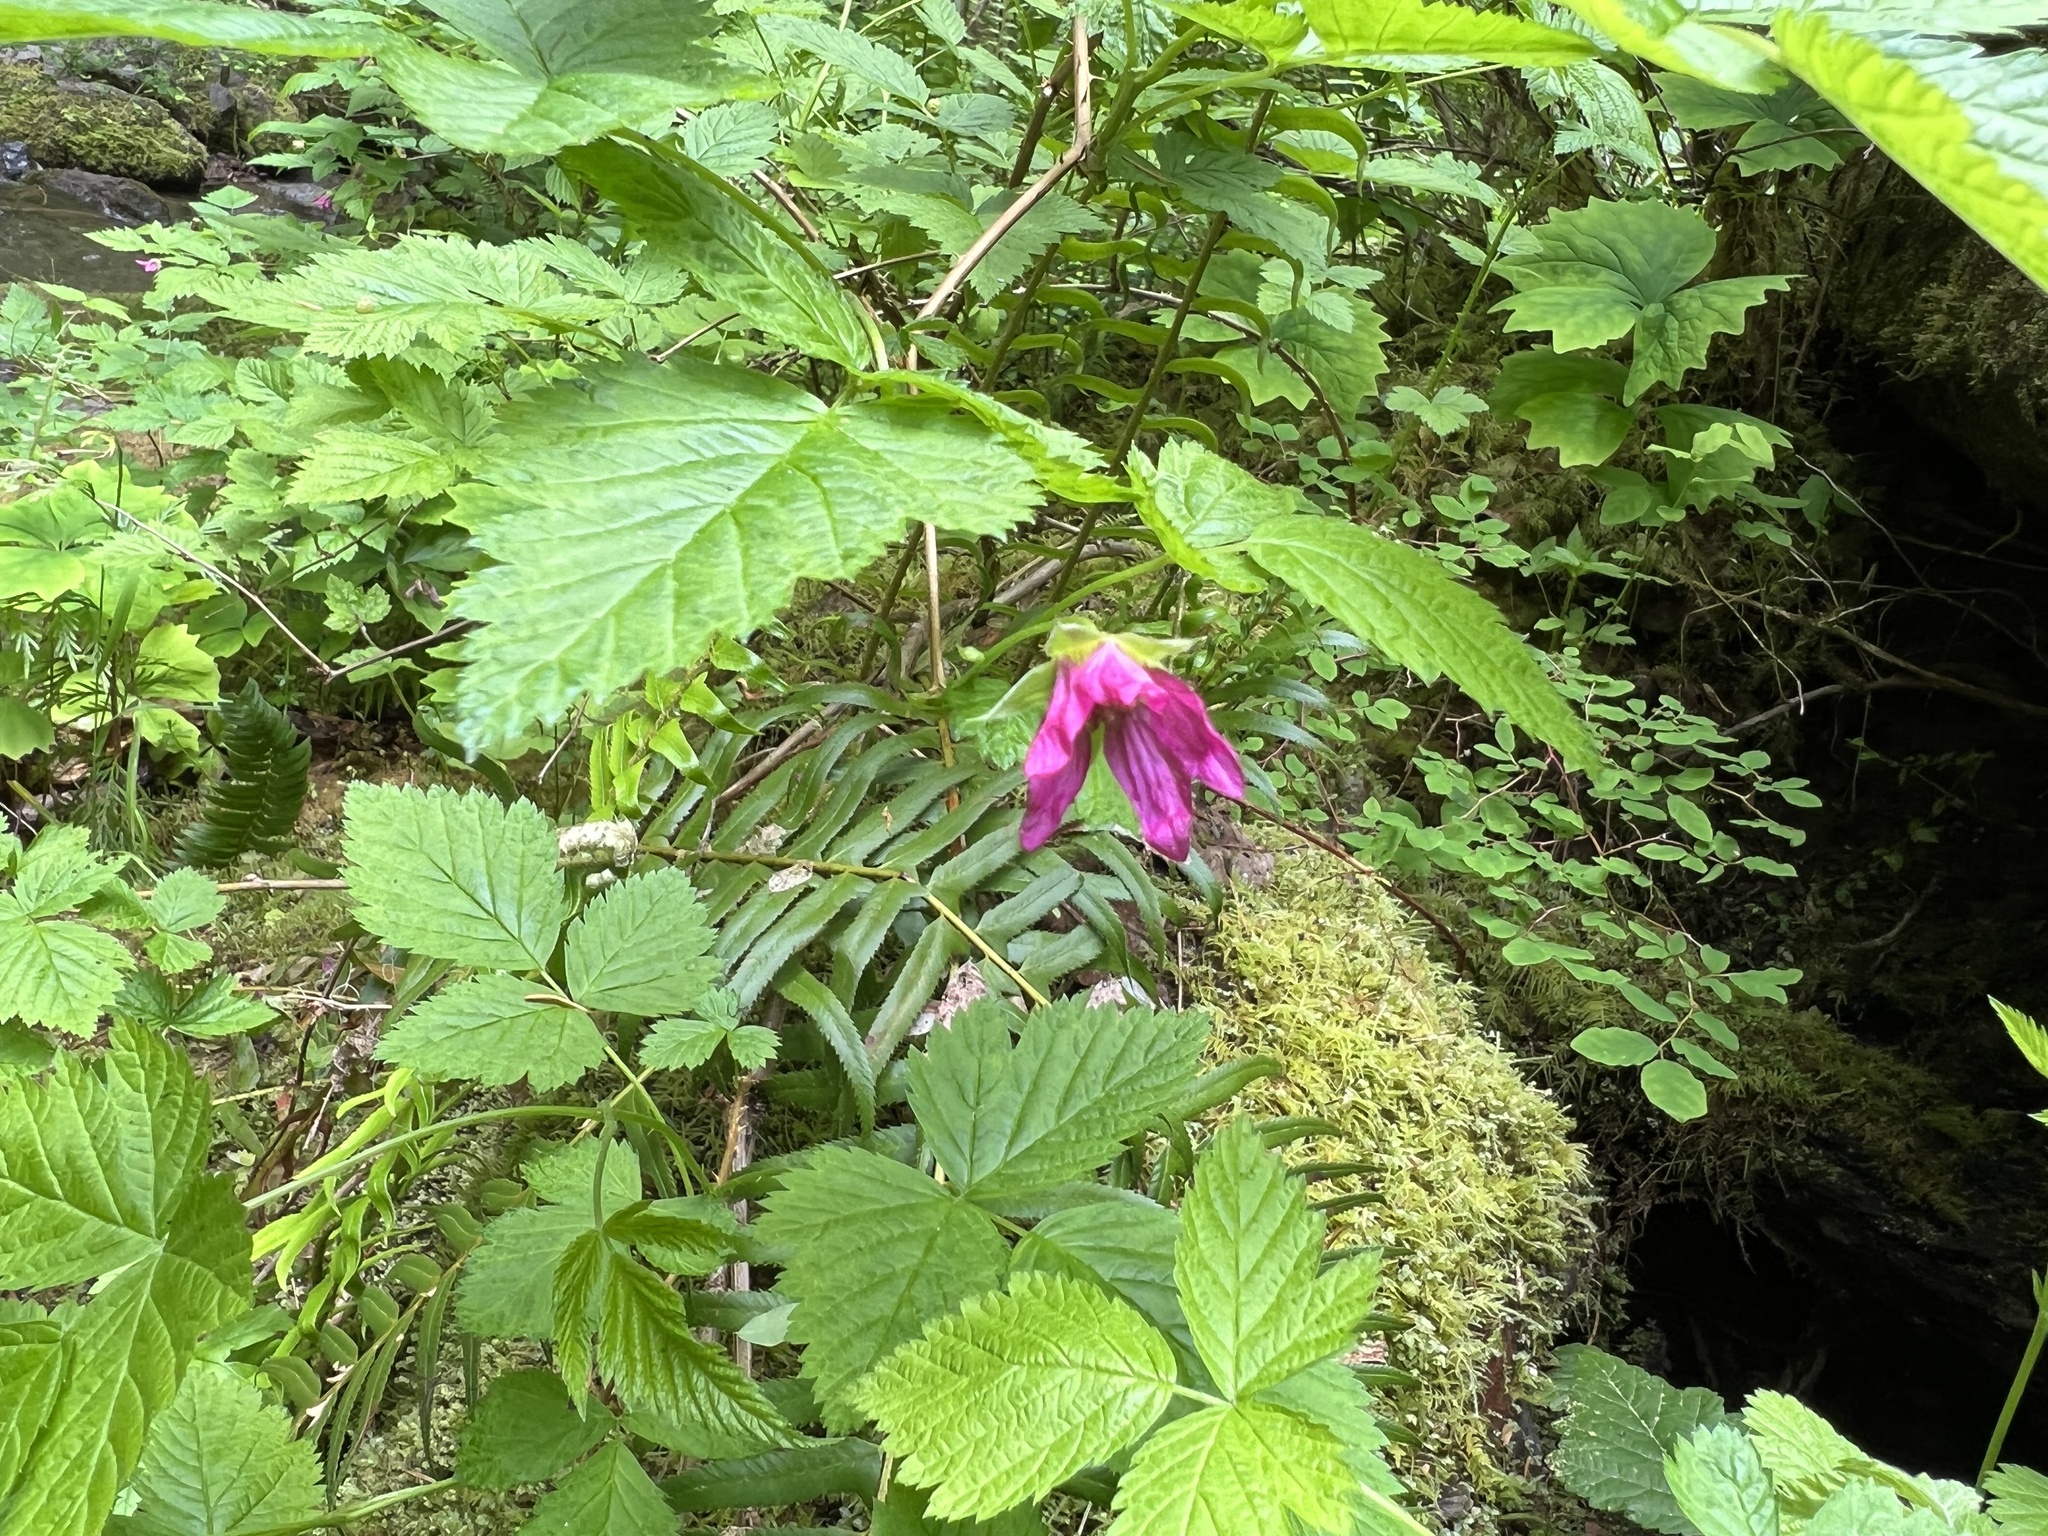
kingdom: Plantae
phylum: Tracheophyta
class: Magnoliopsida
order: Rosales
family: Rosaceae
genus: Rubus
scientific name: Rubus spectabilis
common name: Salmonberry
